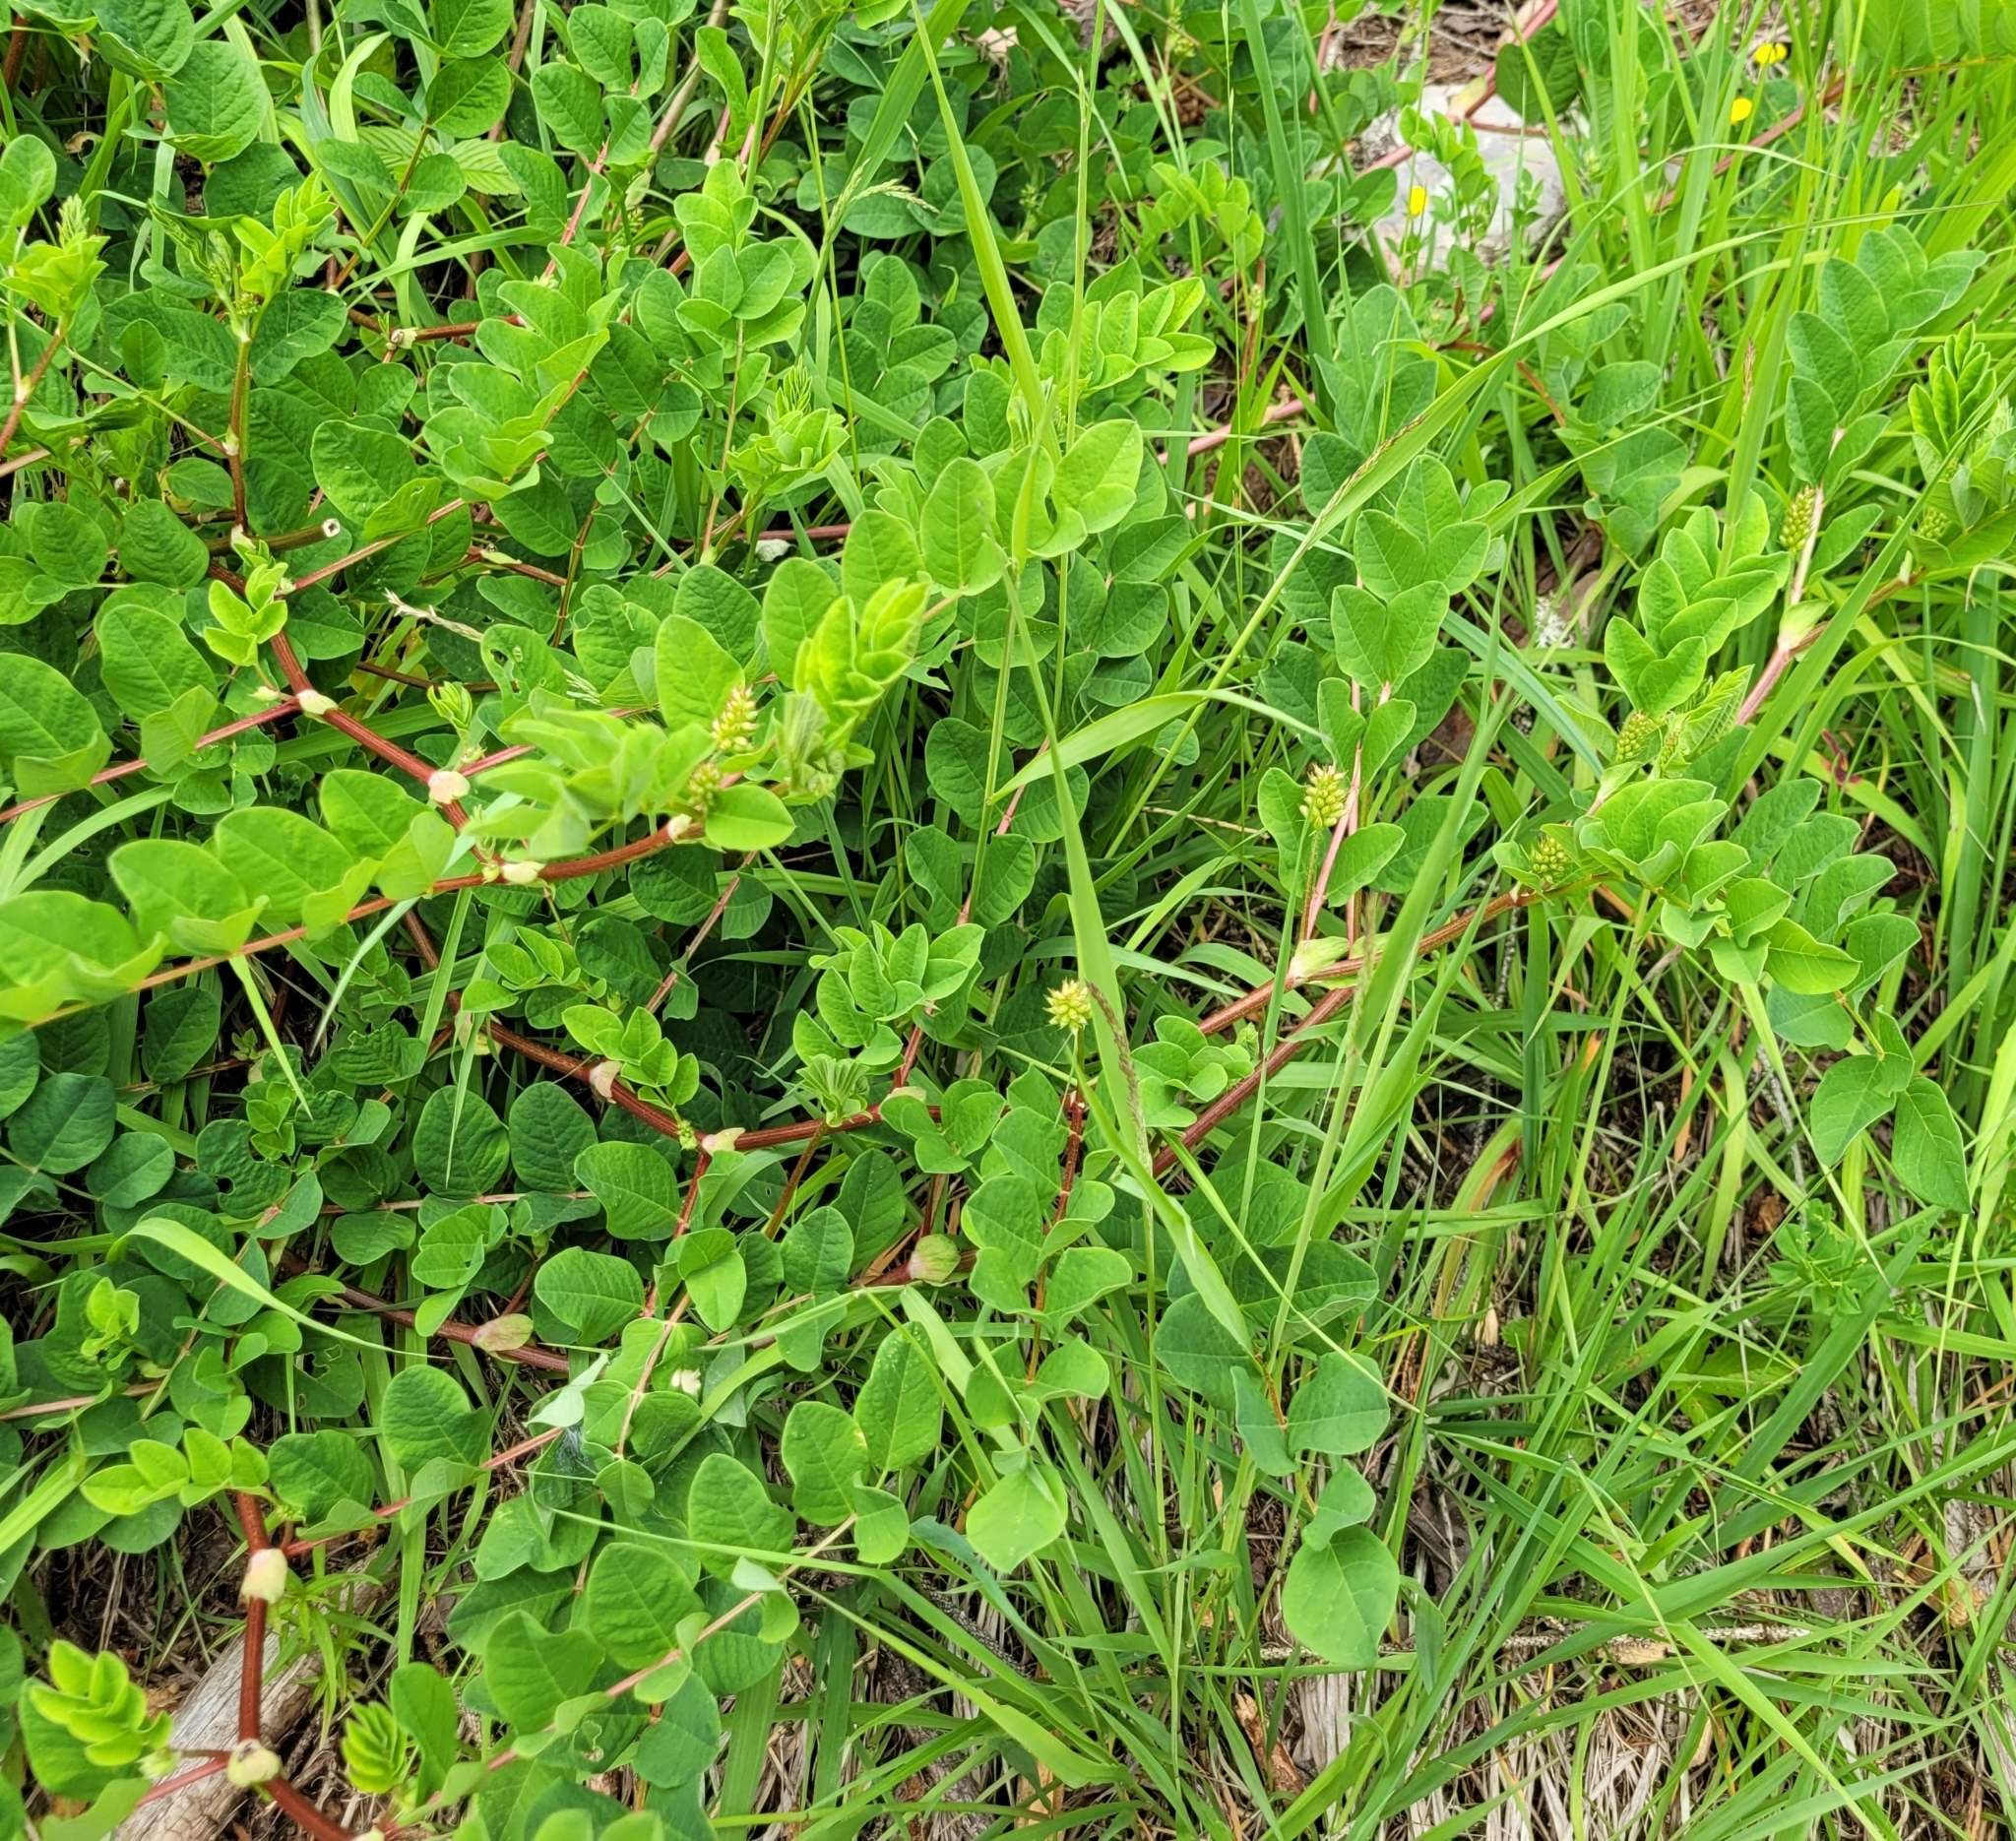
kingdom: Plantae
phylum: Tracheophyta
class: Magnoliopsida
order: Fabales
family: Fabaceae
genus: Astragalus
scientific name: Astragalus glycyphyllos
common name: Wild liquorice
